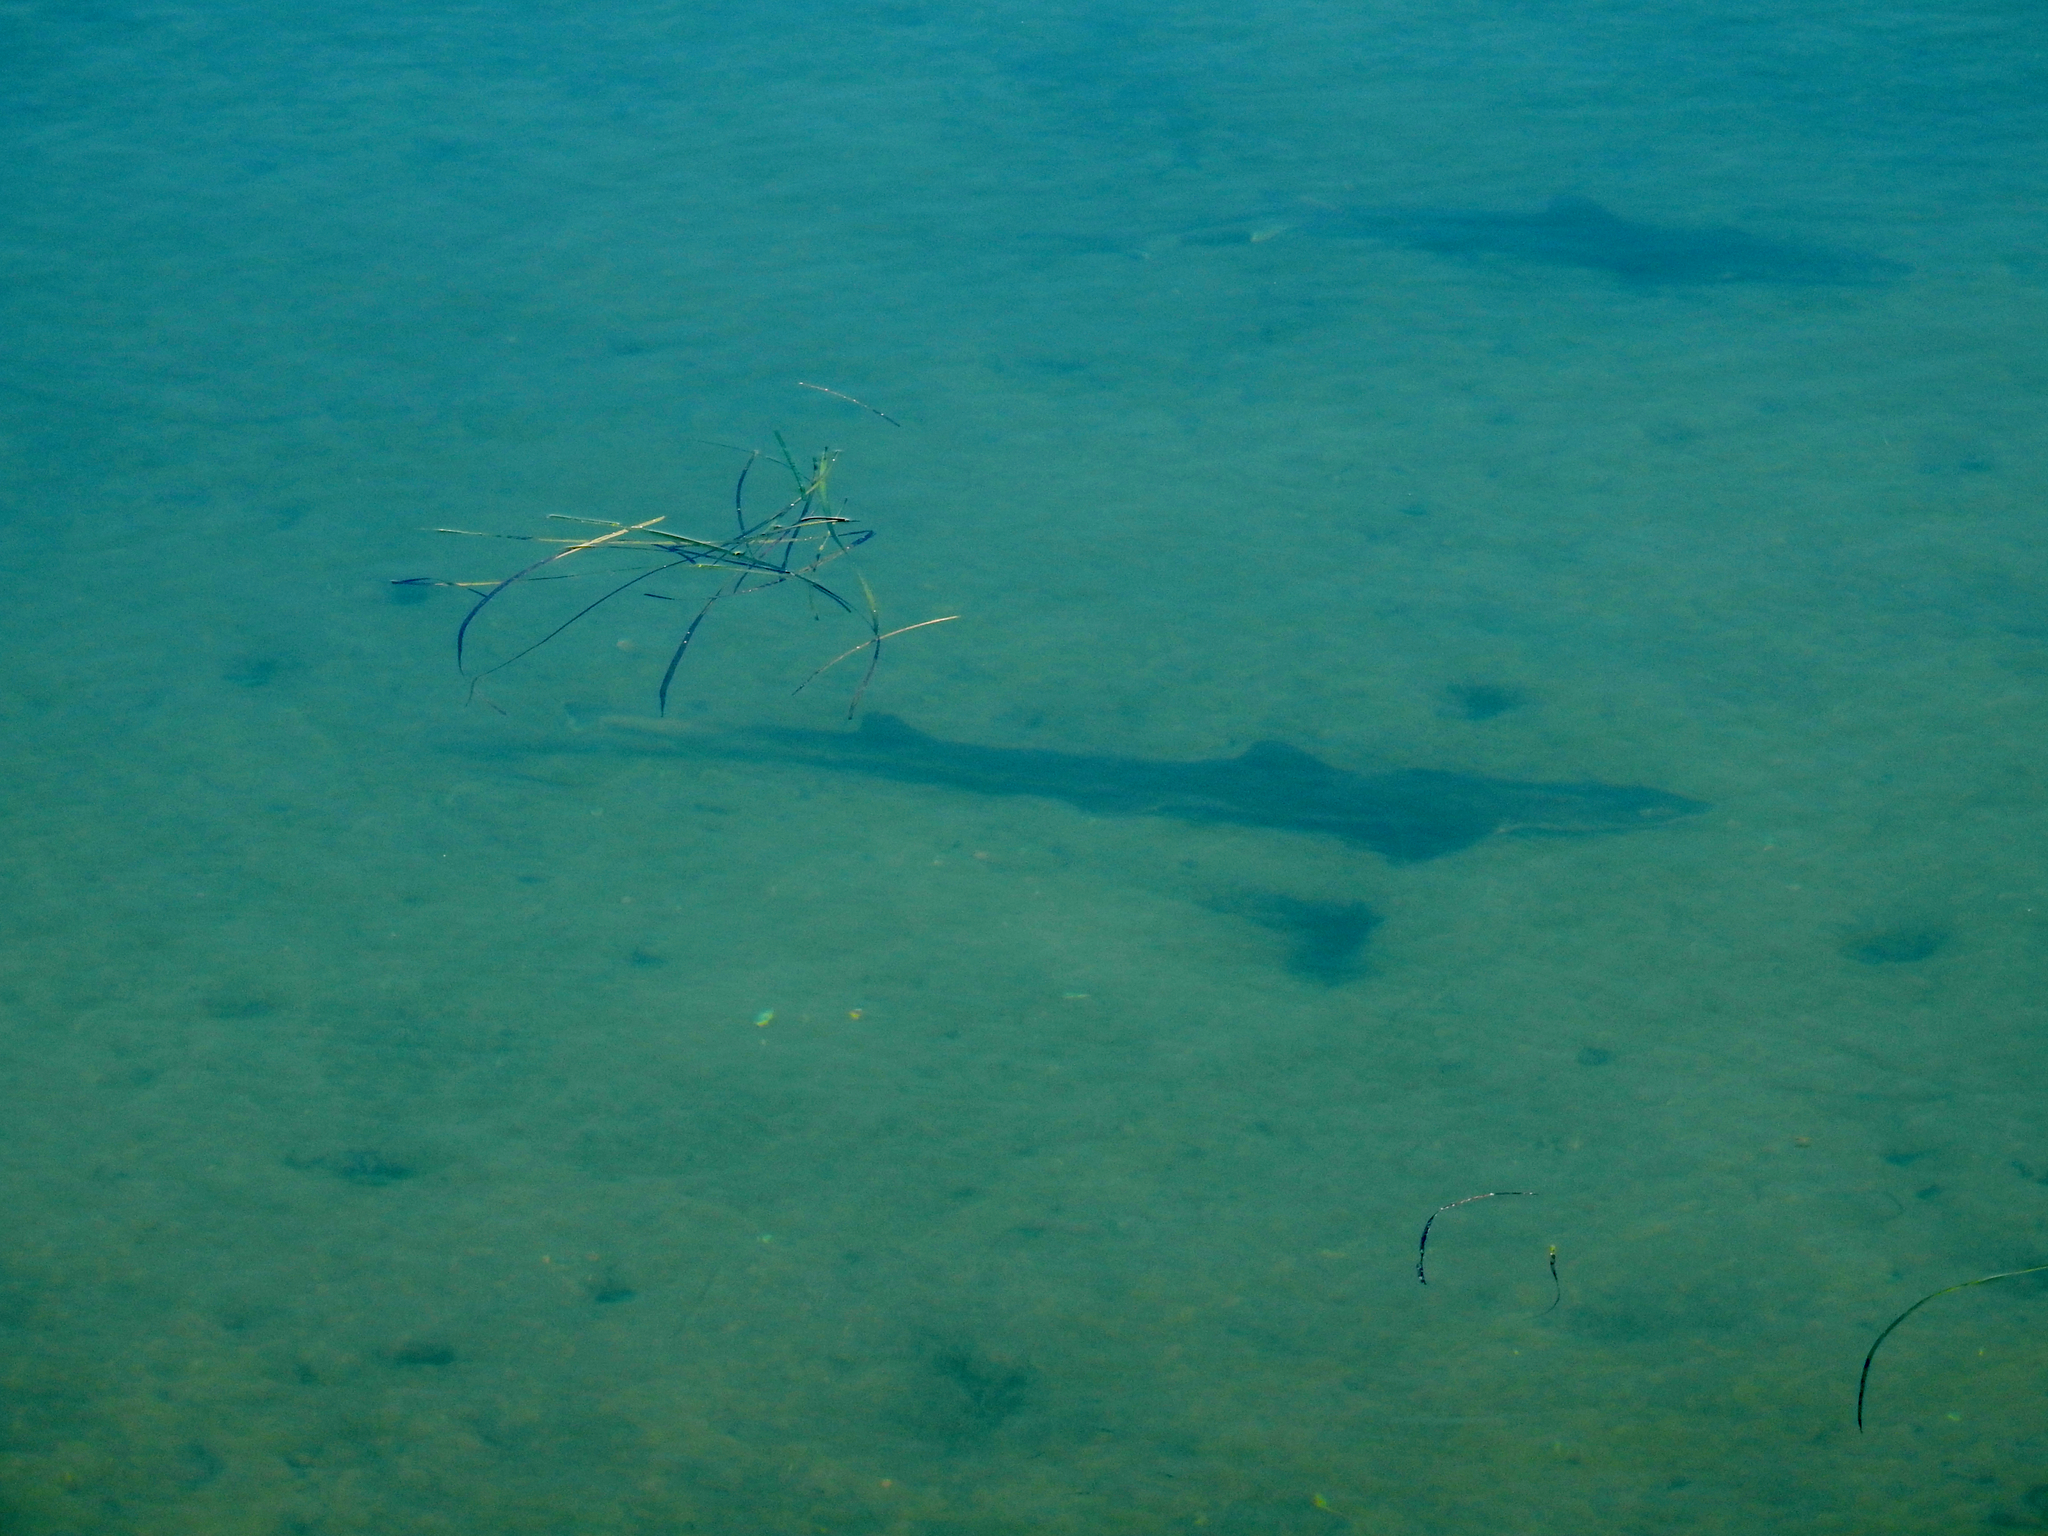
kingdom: Animalia
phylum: Chordata
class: Elasmobranchii
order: Carcharhiniformes
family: Triakidae
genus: Mustelus
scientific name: Mustelus californicus
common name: Gray smooth hound
